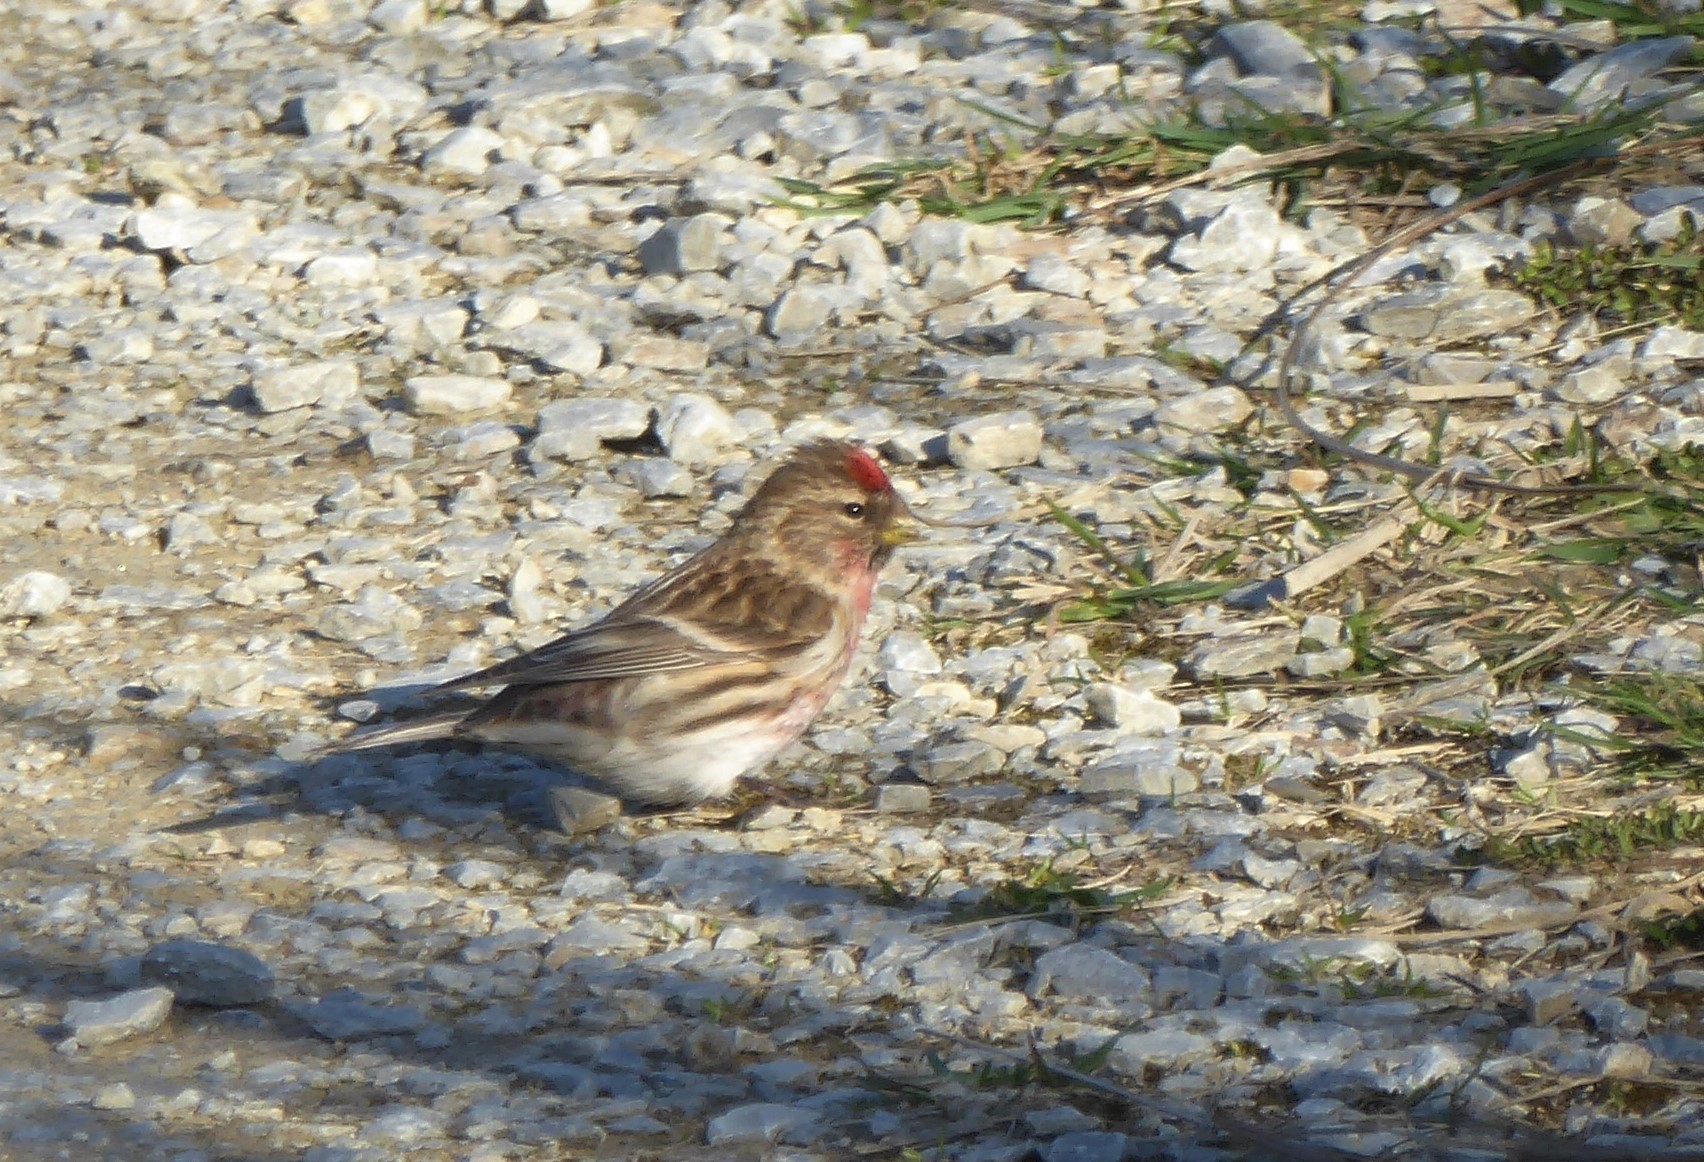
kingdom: Animalia
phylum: Chordata
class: Aves
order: Passeriformes
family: Fringillidae
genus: Acanthis
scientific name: Acanthis flammea
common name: Common redpoll
